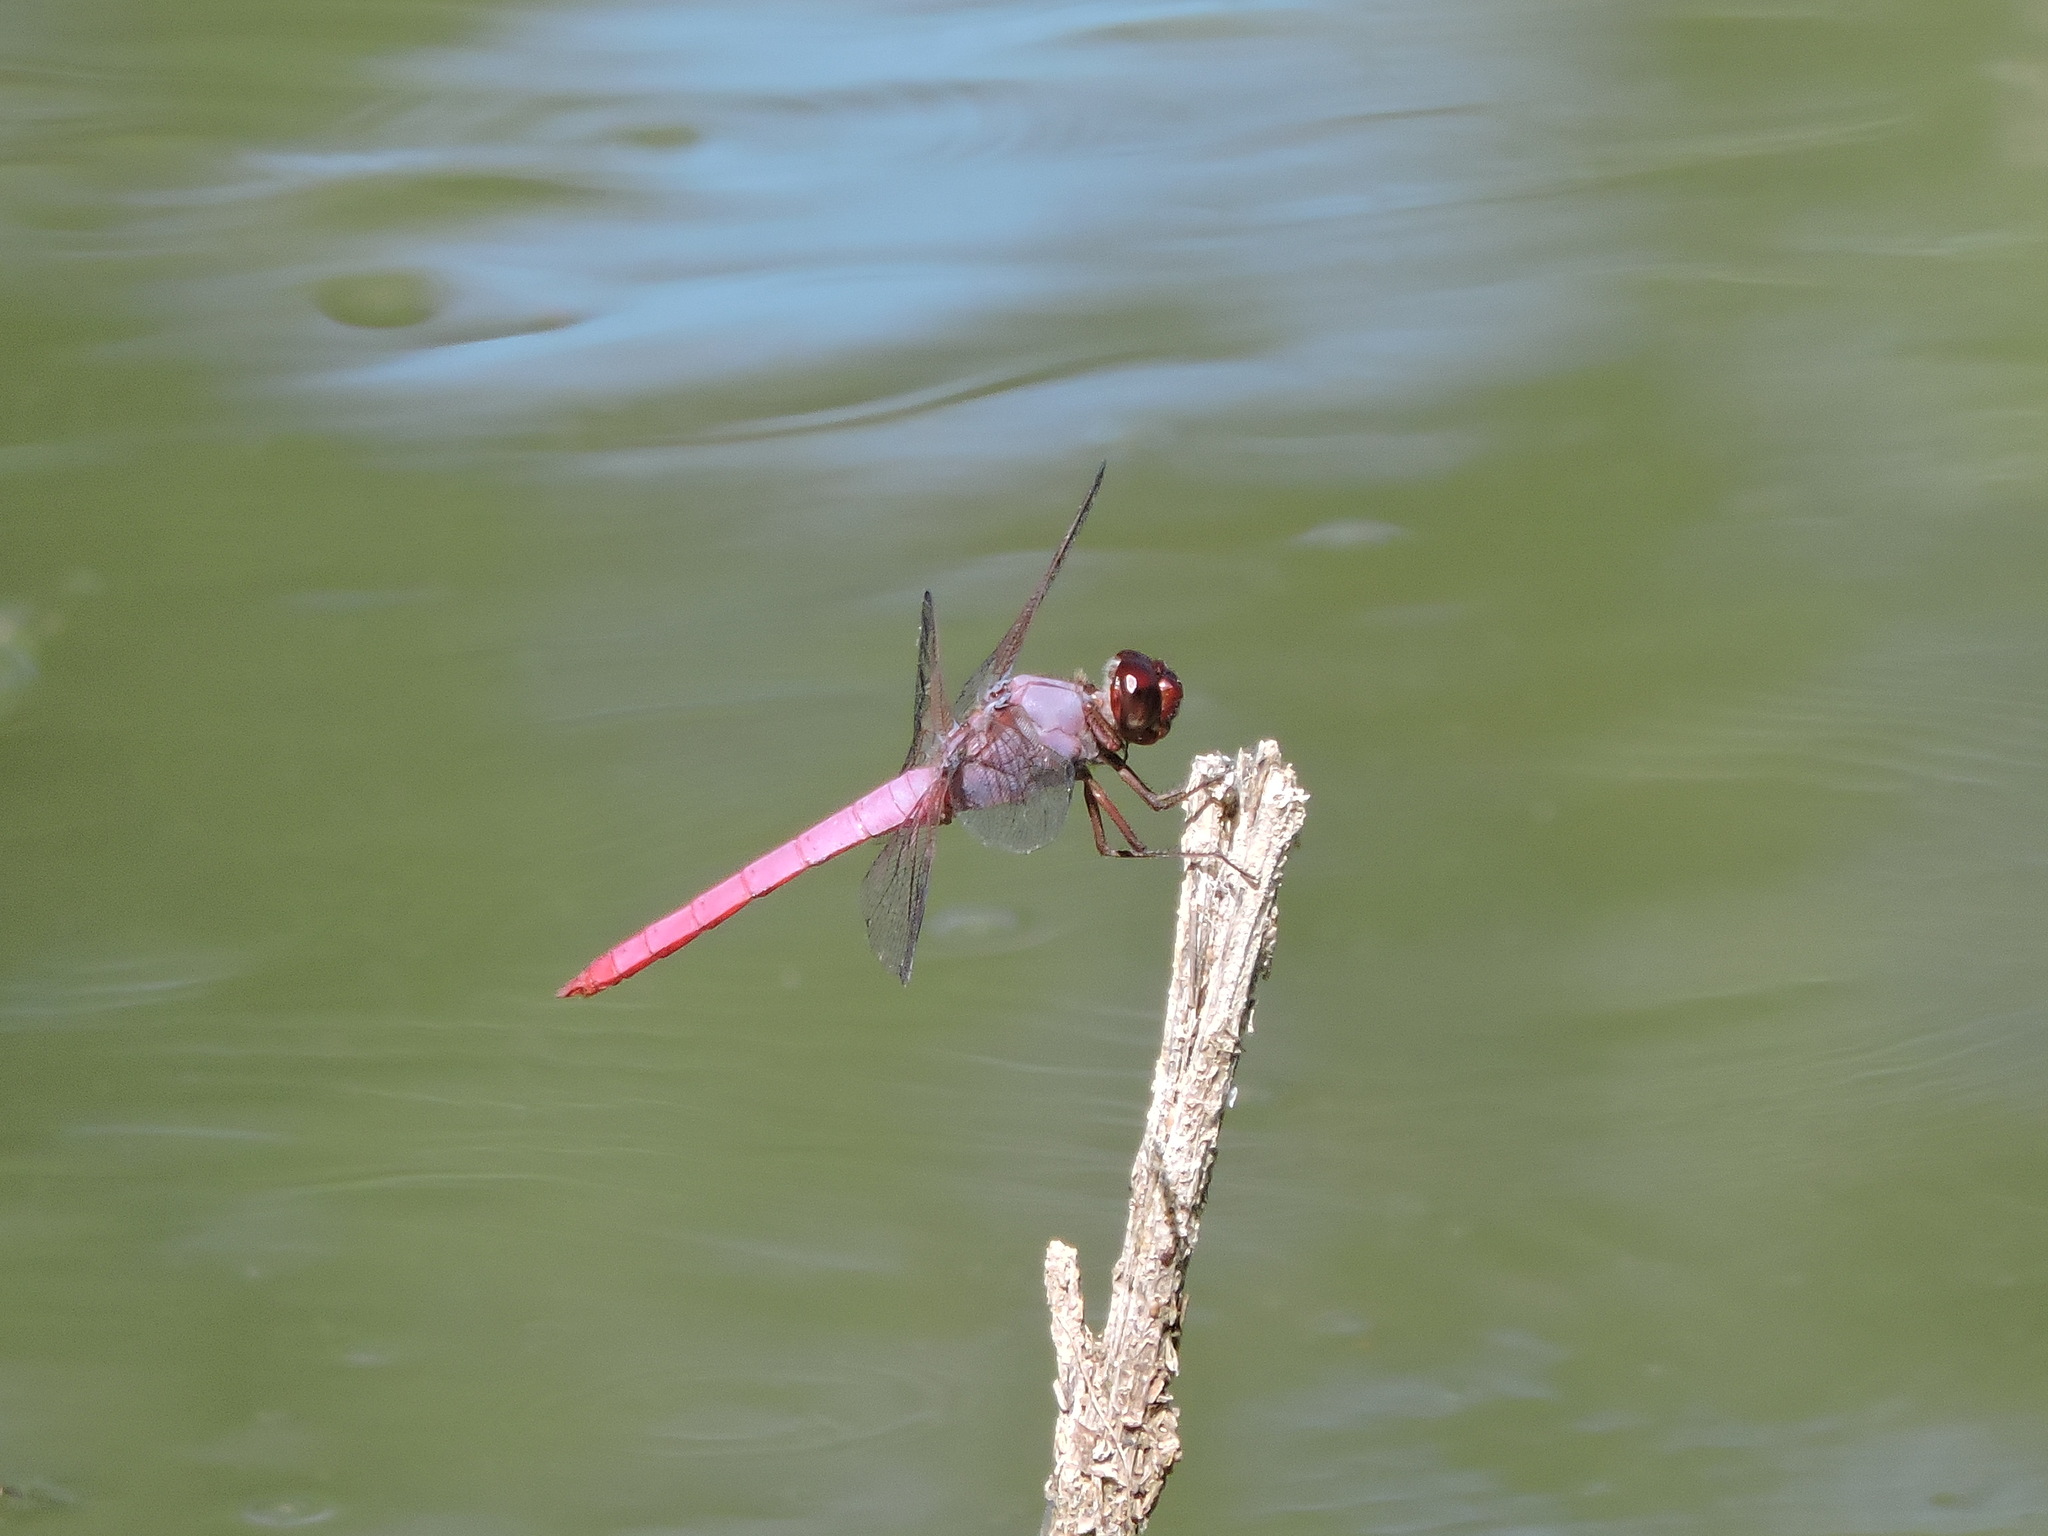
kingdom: Animalia
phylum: Arthropoda
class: Insecta
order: Odonata
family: Libellulidae
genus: Orthemis
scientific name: Orthemis ferruginea
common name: Roseate skimmer
